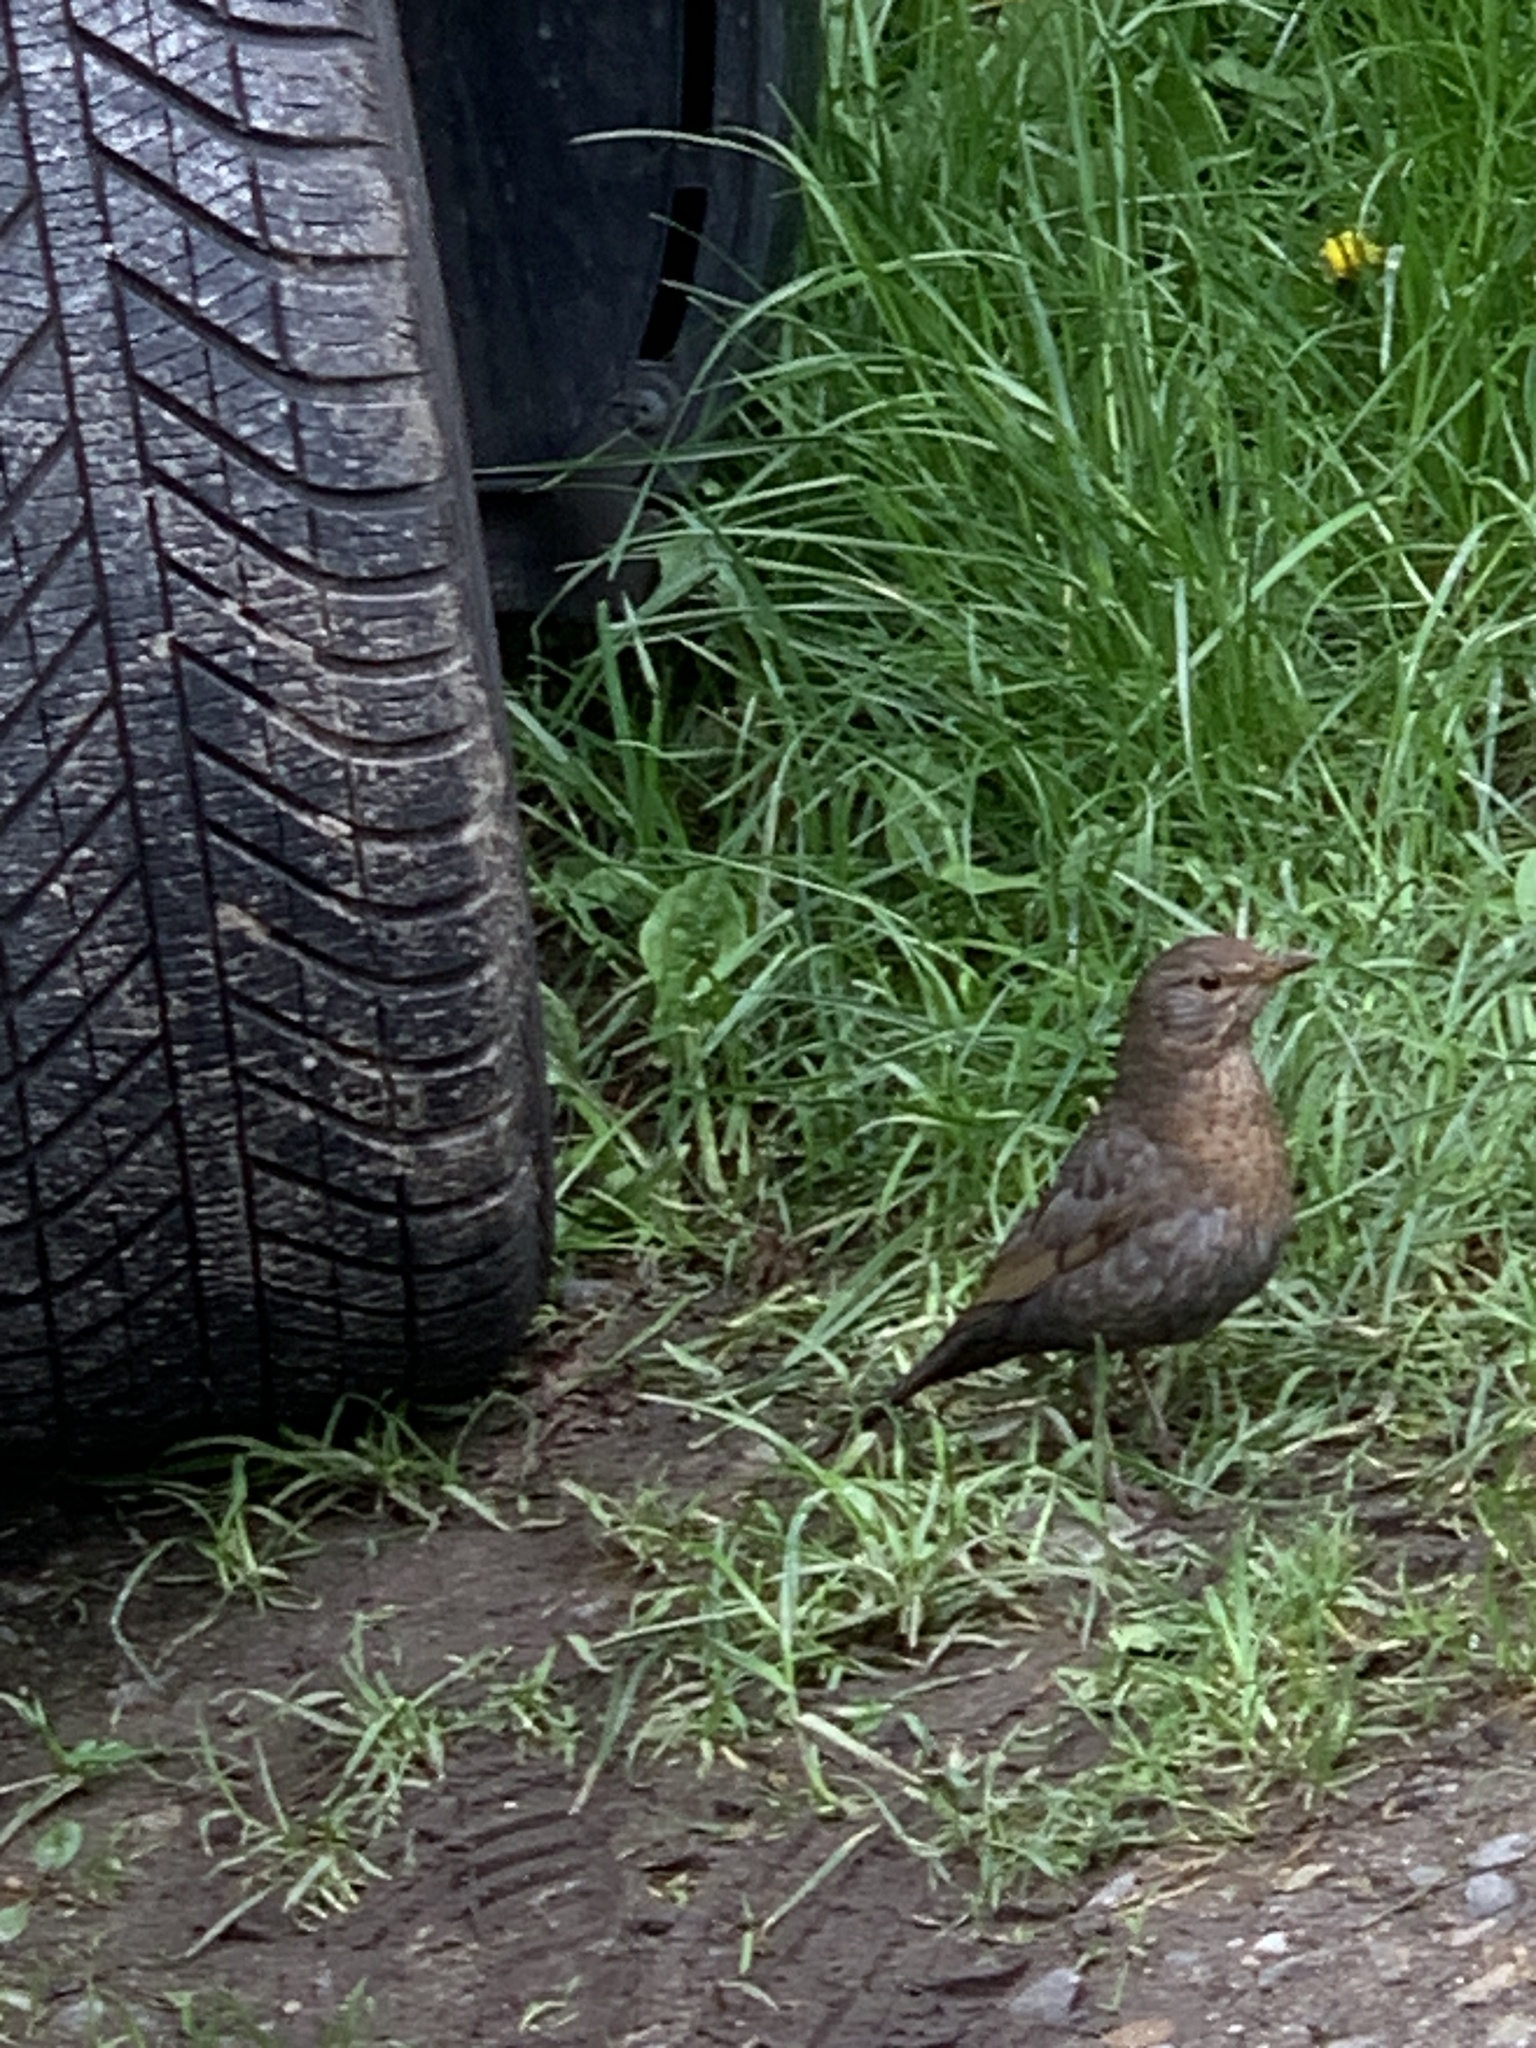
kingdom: Animalia
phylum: Chordata
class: Aves
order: Passeriformes
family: Turdidae
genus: Turdus
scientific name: Turdus merula
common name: Common blackbird
